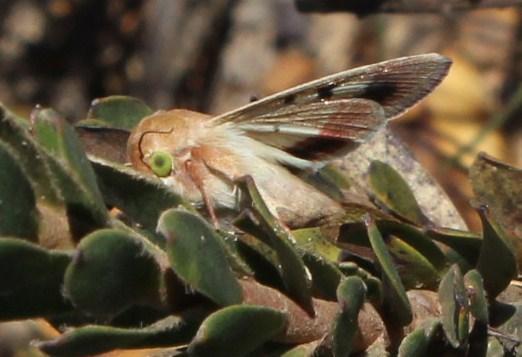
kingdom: Animalia
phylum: Arthropoda
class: Insecta
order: Lepidoptera
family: Noctuidae
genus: Helicoverpa
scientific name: Helicoverpa armigera
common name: Cotton bollworm
